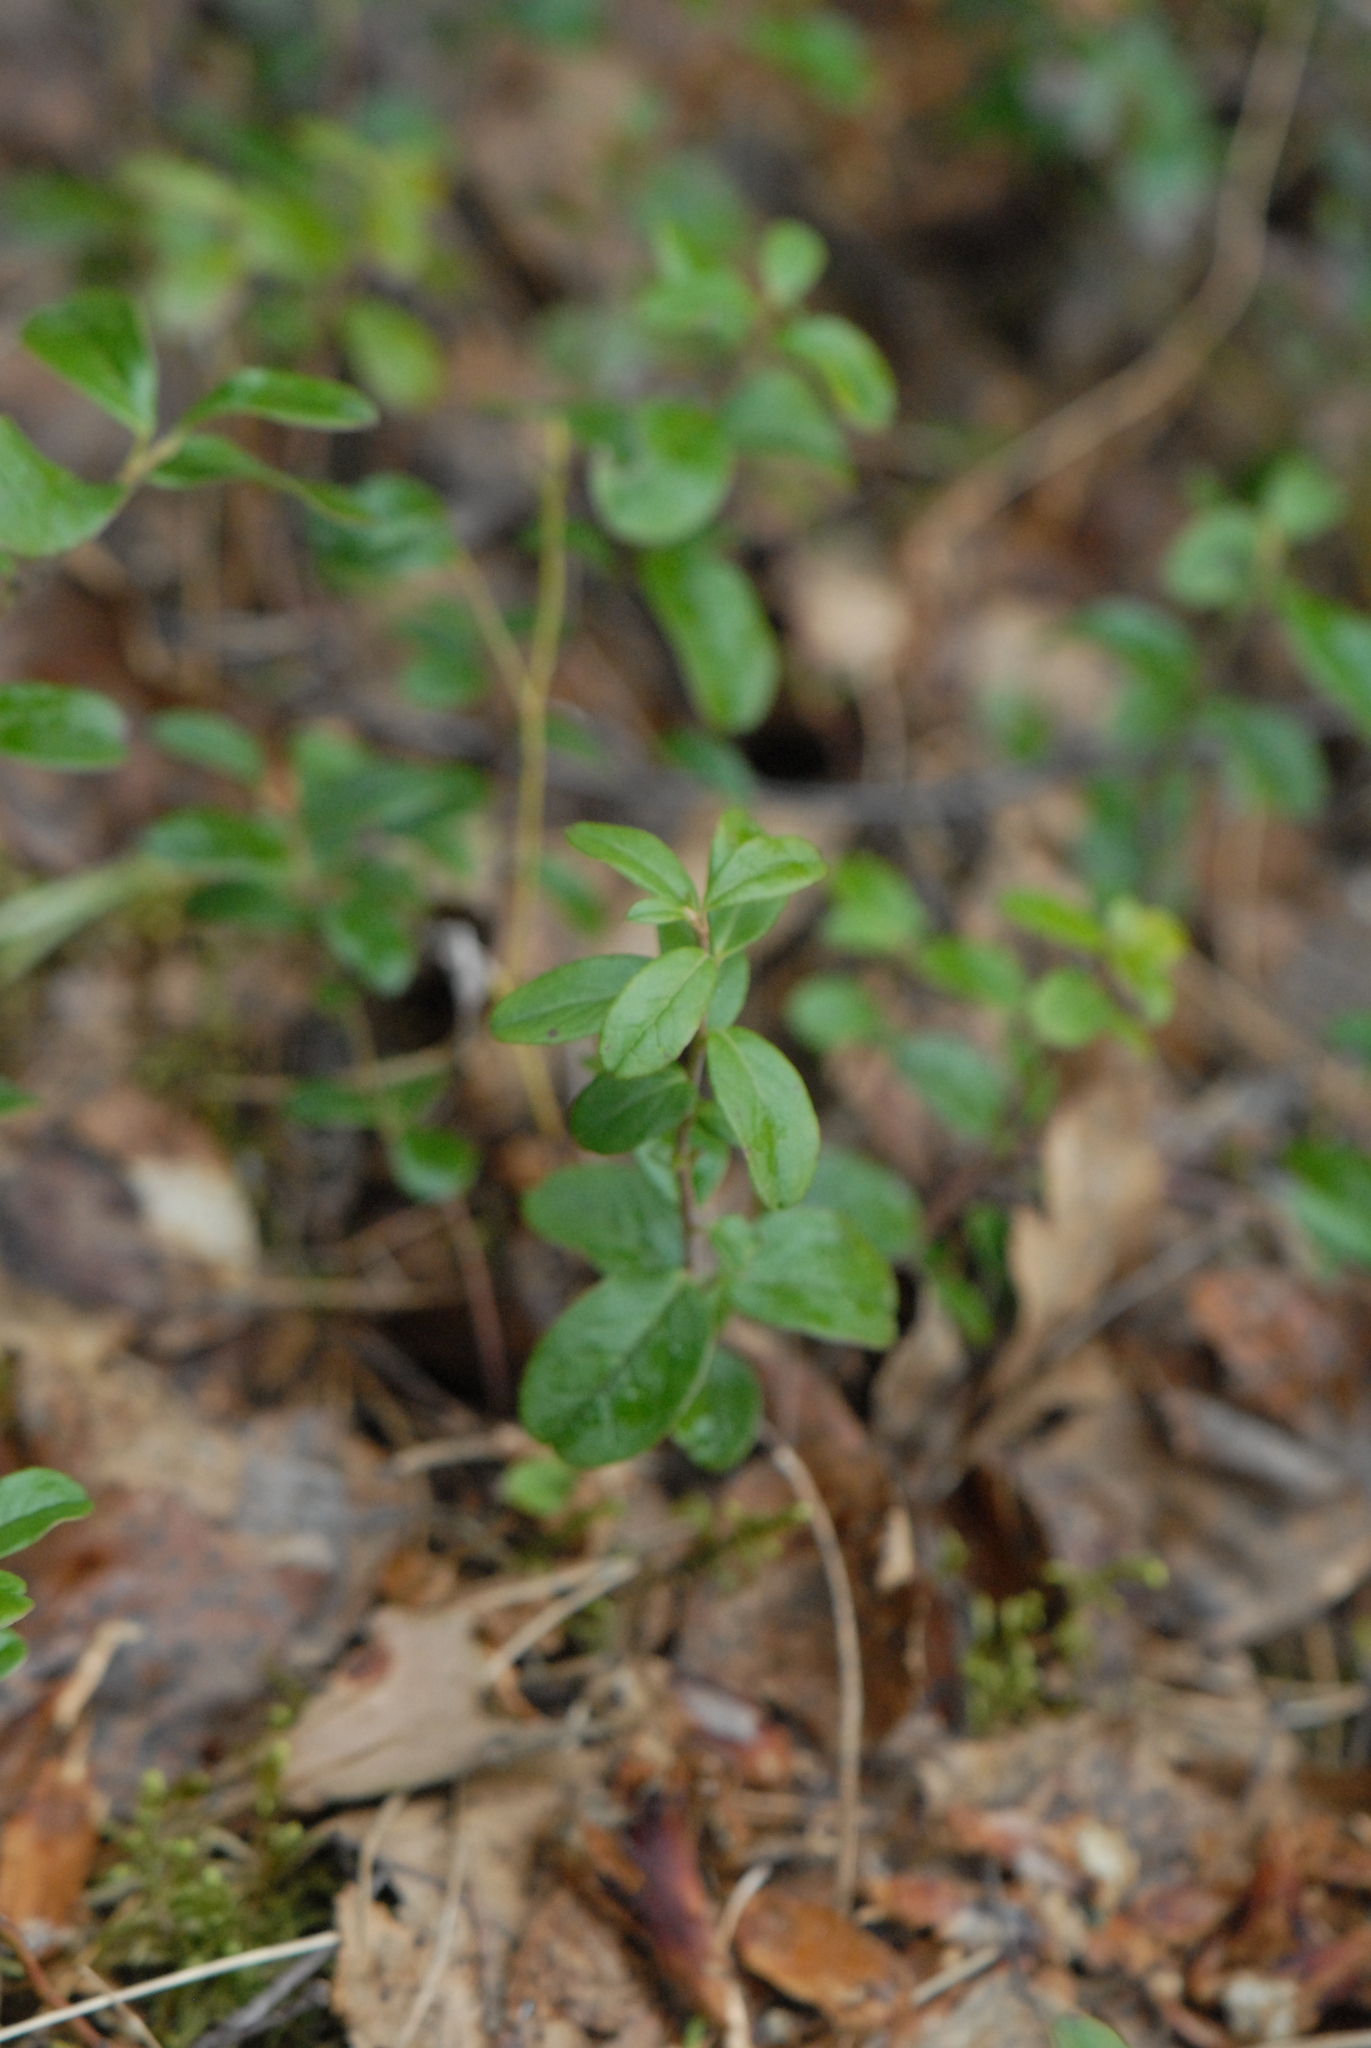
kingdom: Plantae
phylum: Tracheophyta
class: Magnoliopsida
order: Ericales
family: Ericaceae
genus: Vaccinium
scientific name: Vaccinium vitis-idaea
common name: Cowberry
